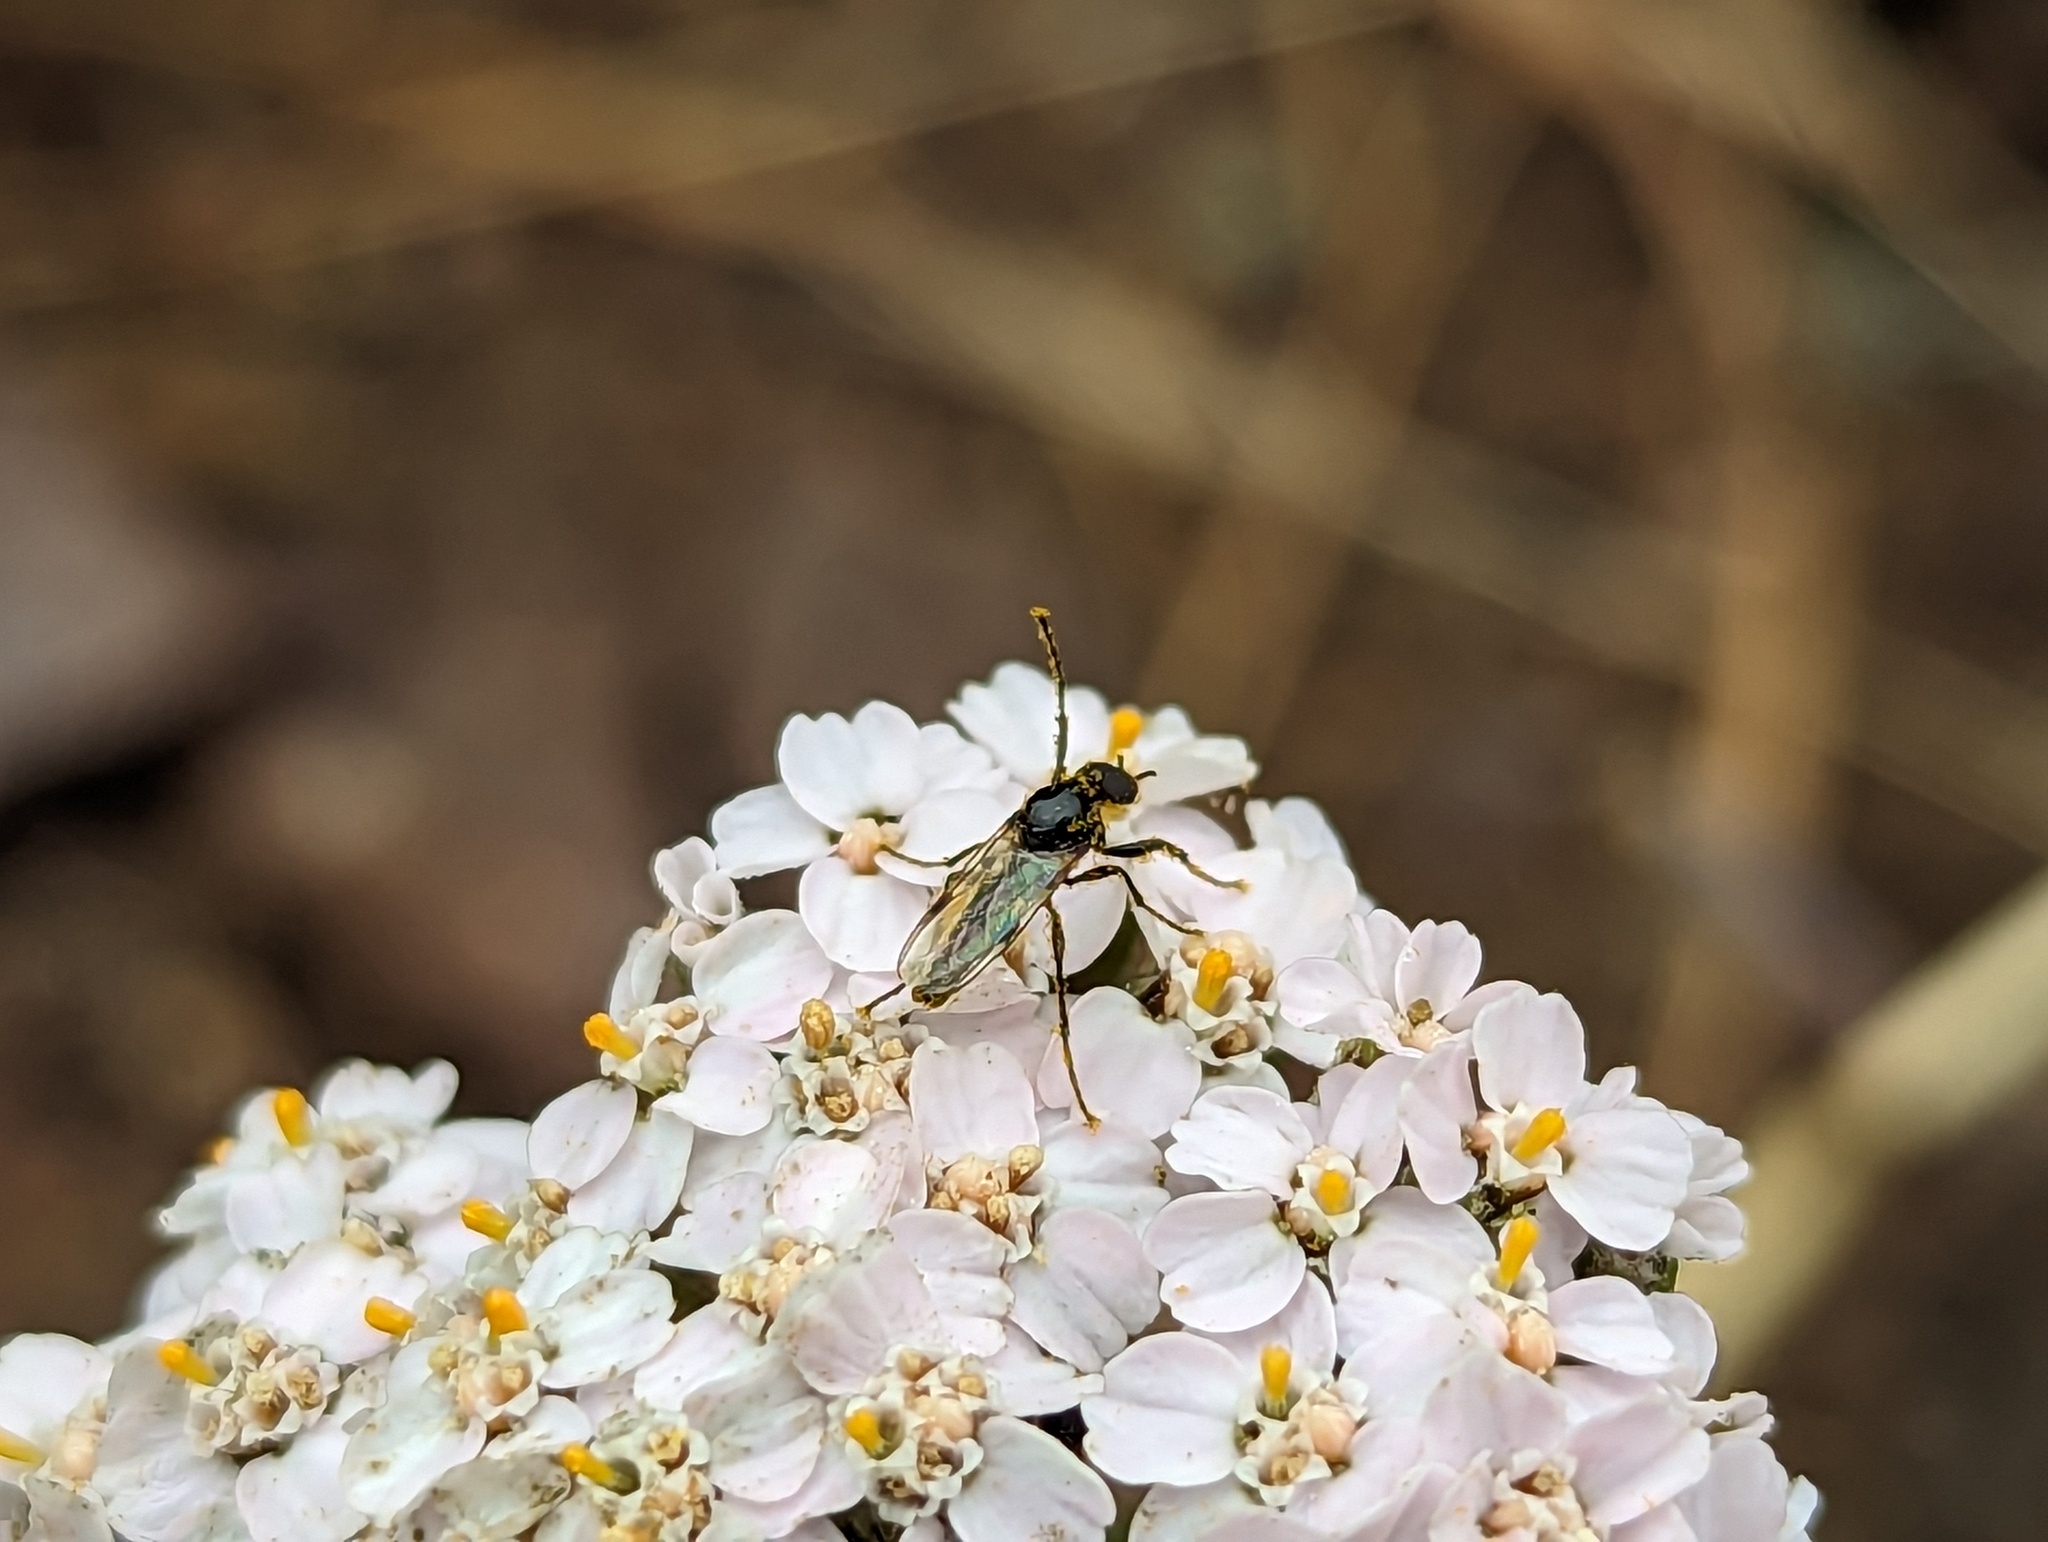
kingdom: Animalia
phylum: Arthropoda
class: Insecta
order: Diptera
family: Bibionidae
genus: Dilophus
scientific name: Dilophus
